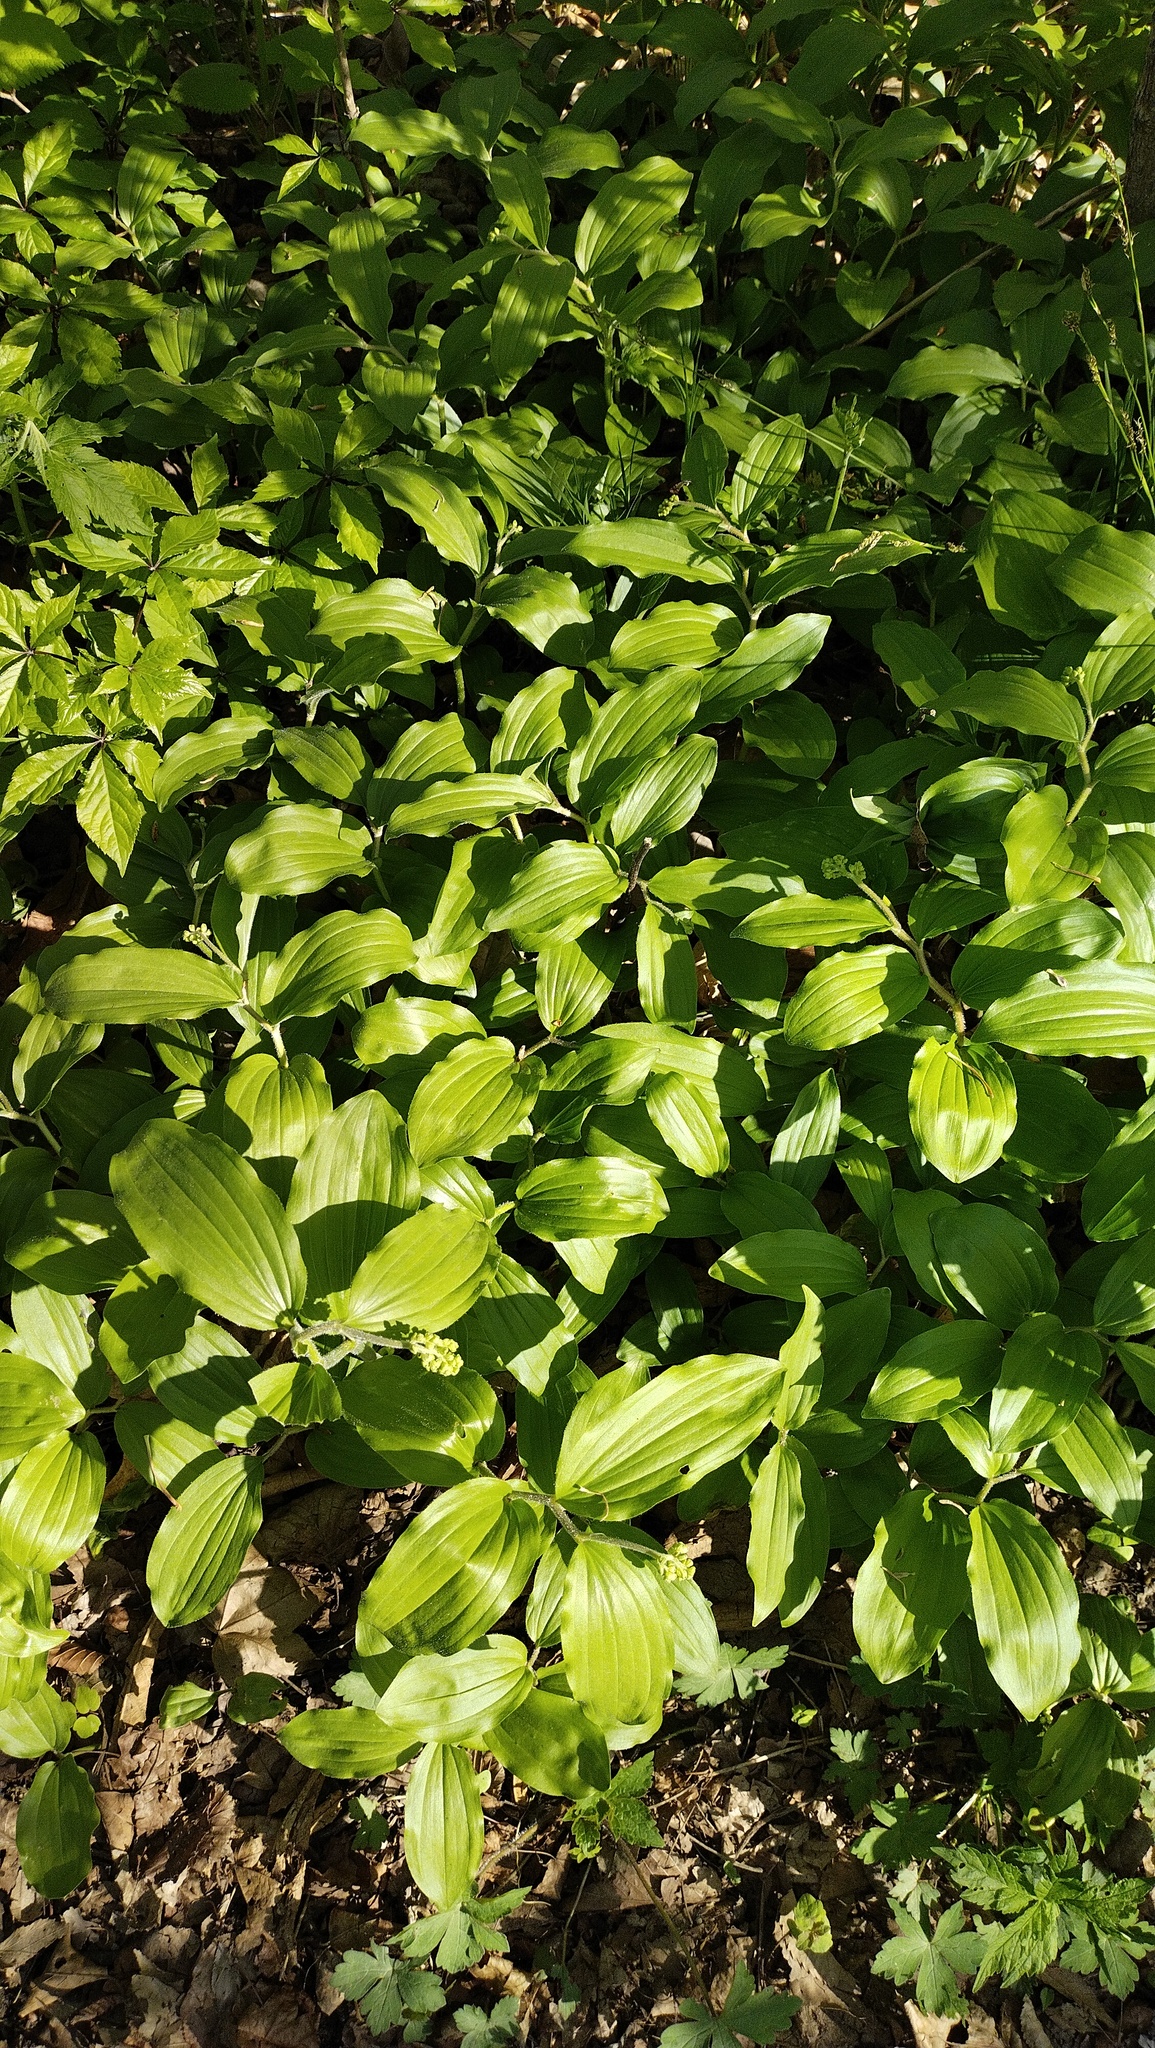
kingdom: Plantae
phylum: Tracheophyta
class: Liliopsida
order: Asparagales
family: Asparagaceae
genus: Maianthemum
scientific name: Maianthemum japonicum
